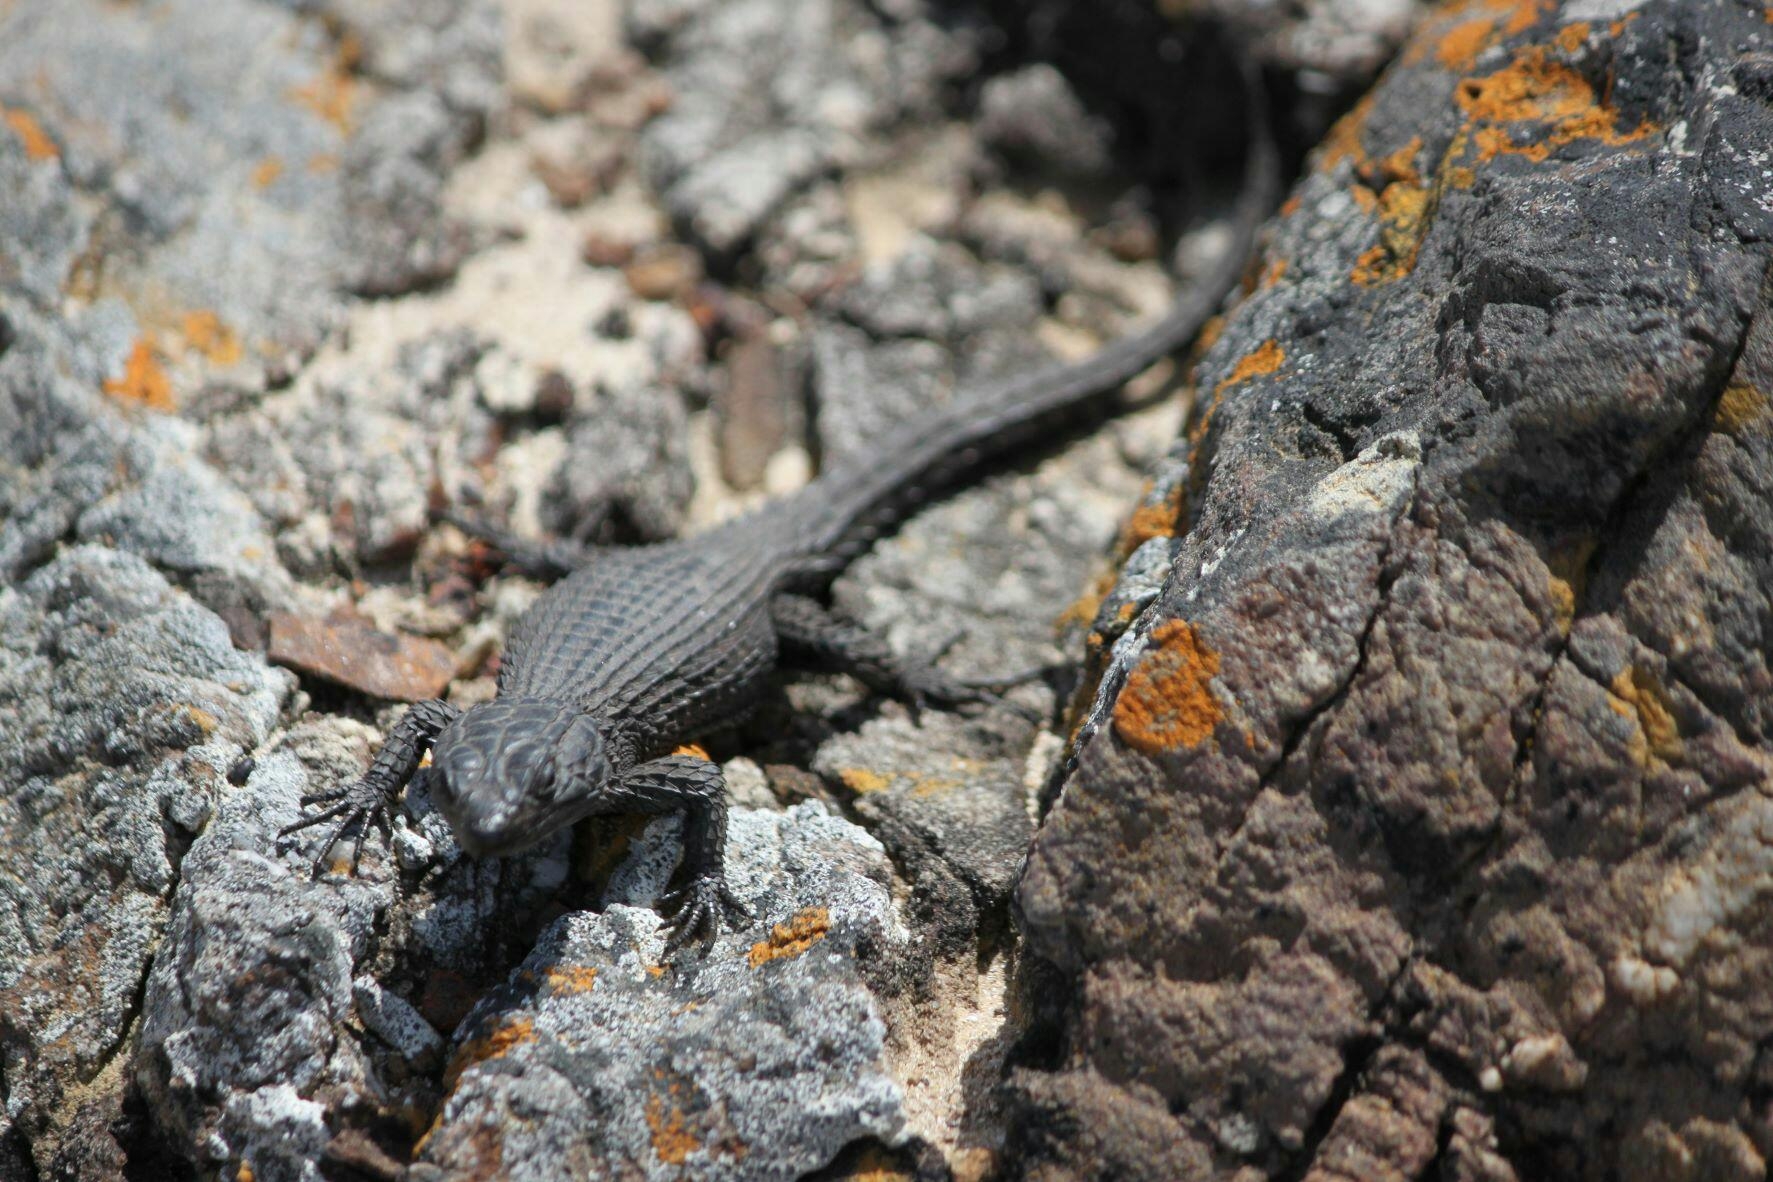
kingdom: Animalia
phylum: Chordata
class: Squamata
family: Cordylidae
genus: Cordylus
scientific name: Cordylus niger
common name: Black girdled lizard
